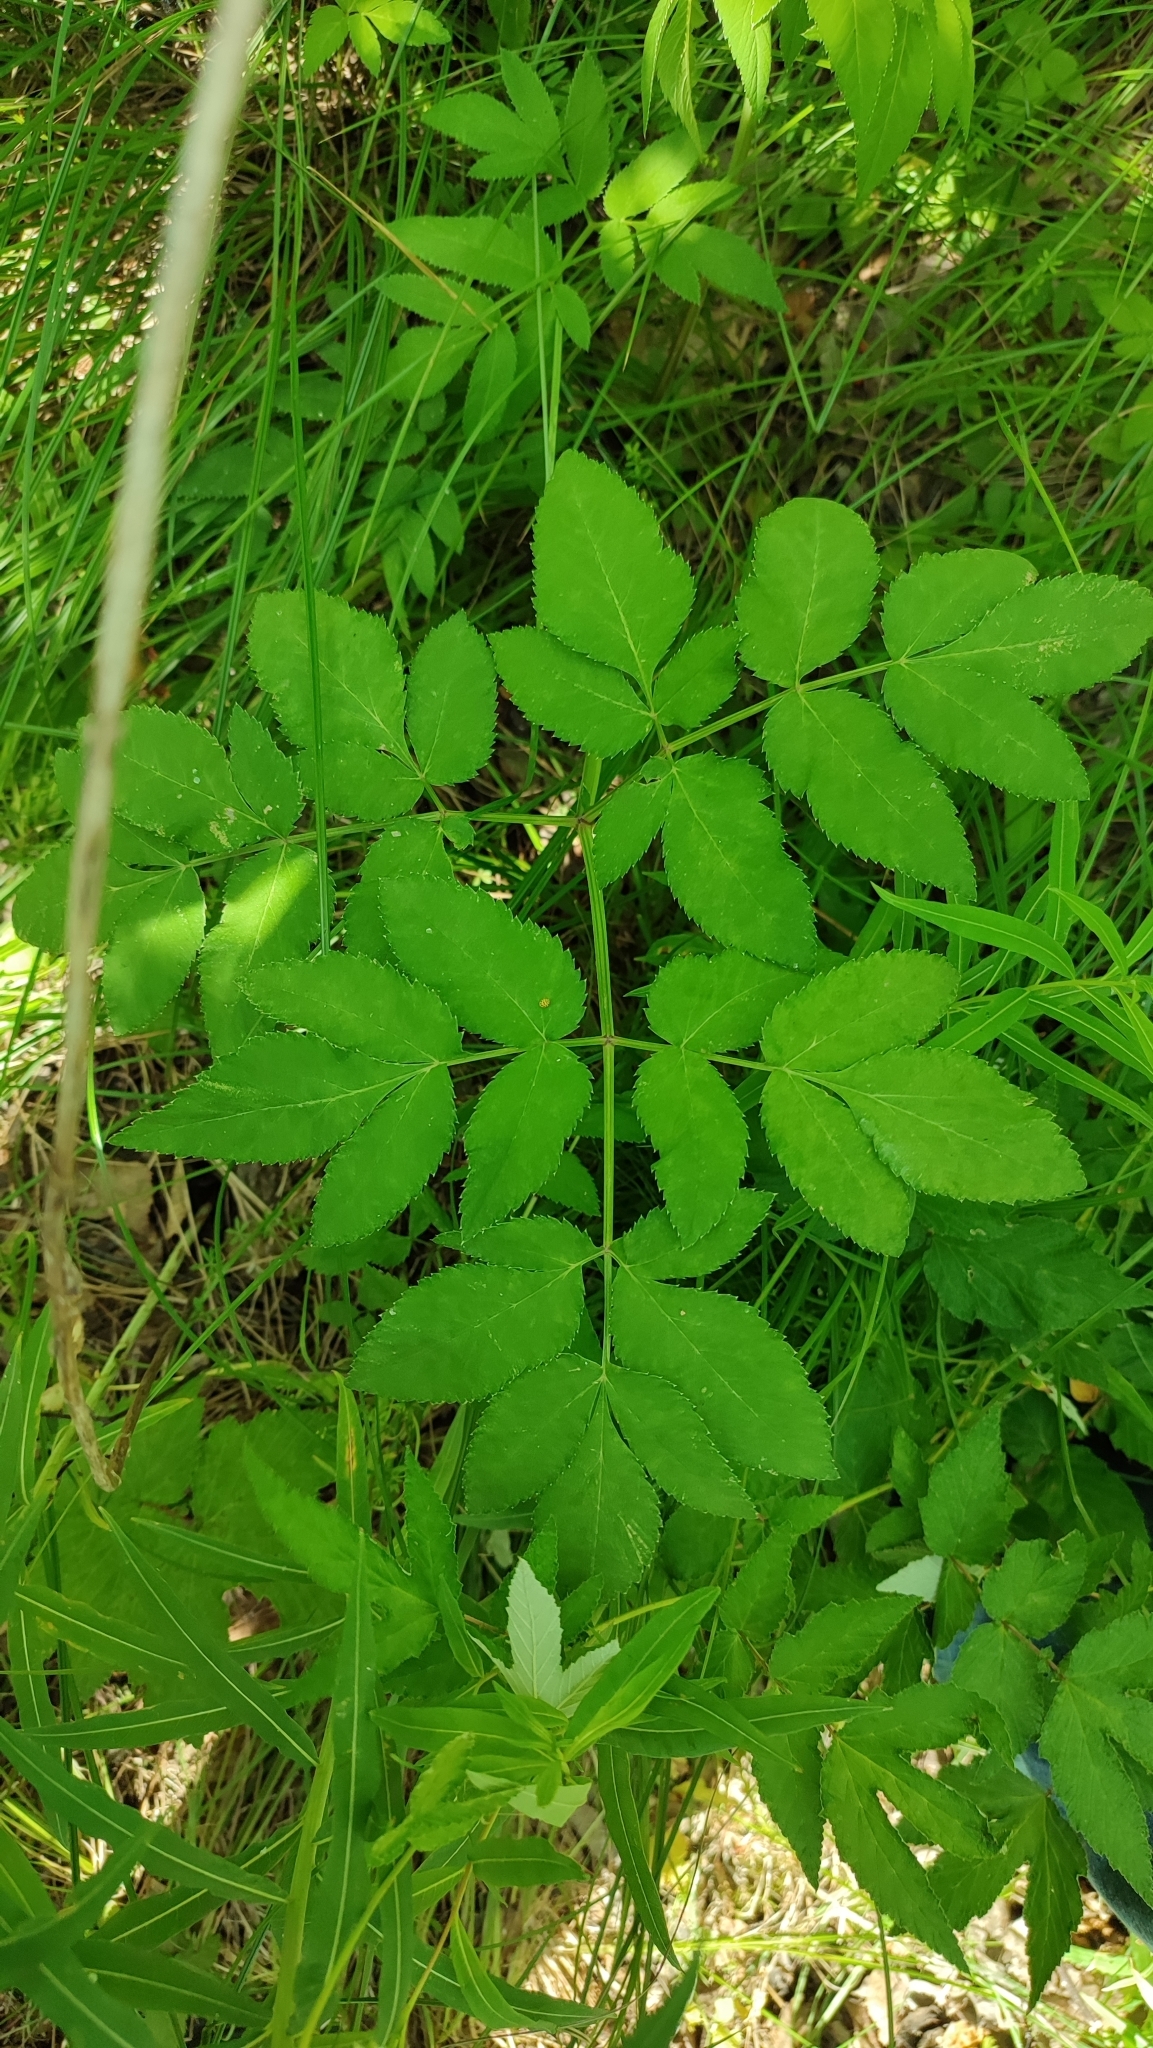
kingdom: Plantae
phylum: Tracheophyta
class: Magnoliopsida
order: Apiales
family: Apiaceae
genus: Angelica
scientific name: Angelica sylvestris
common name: Wild angelica
